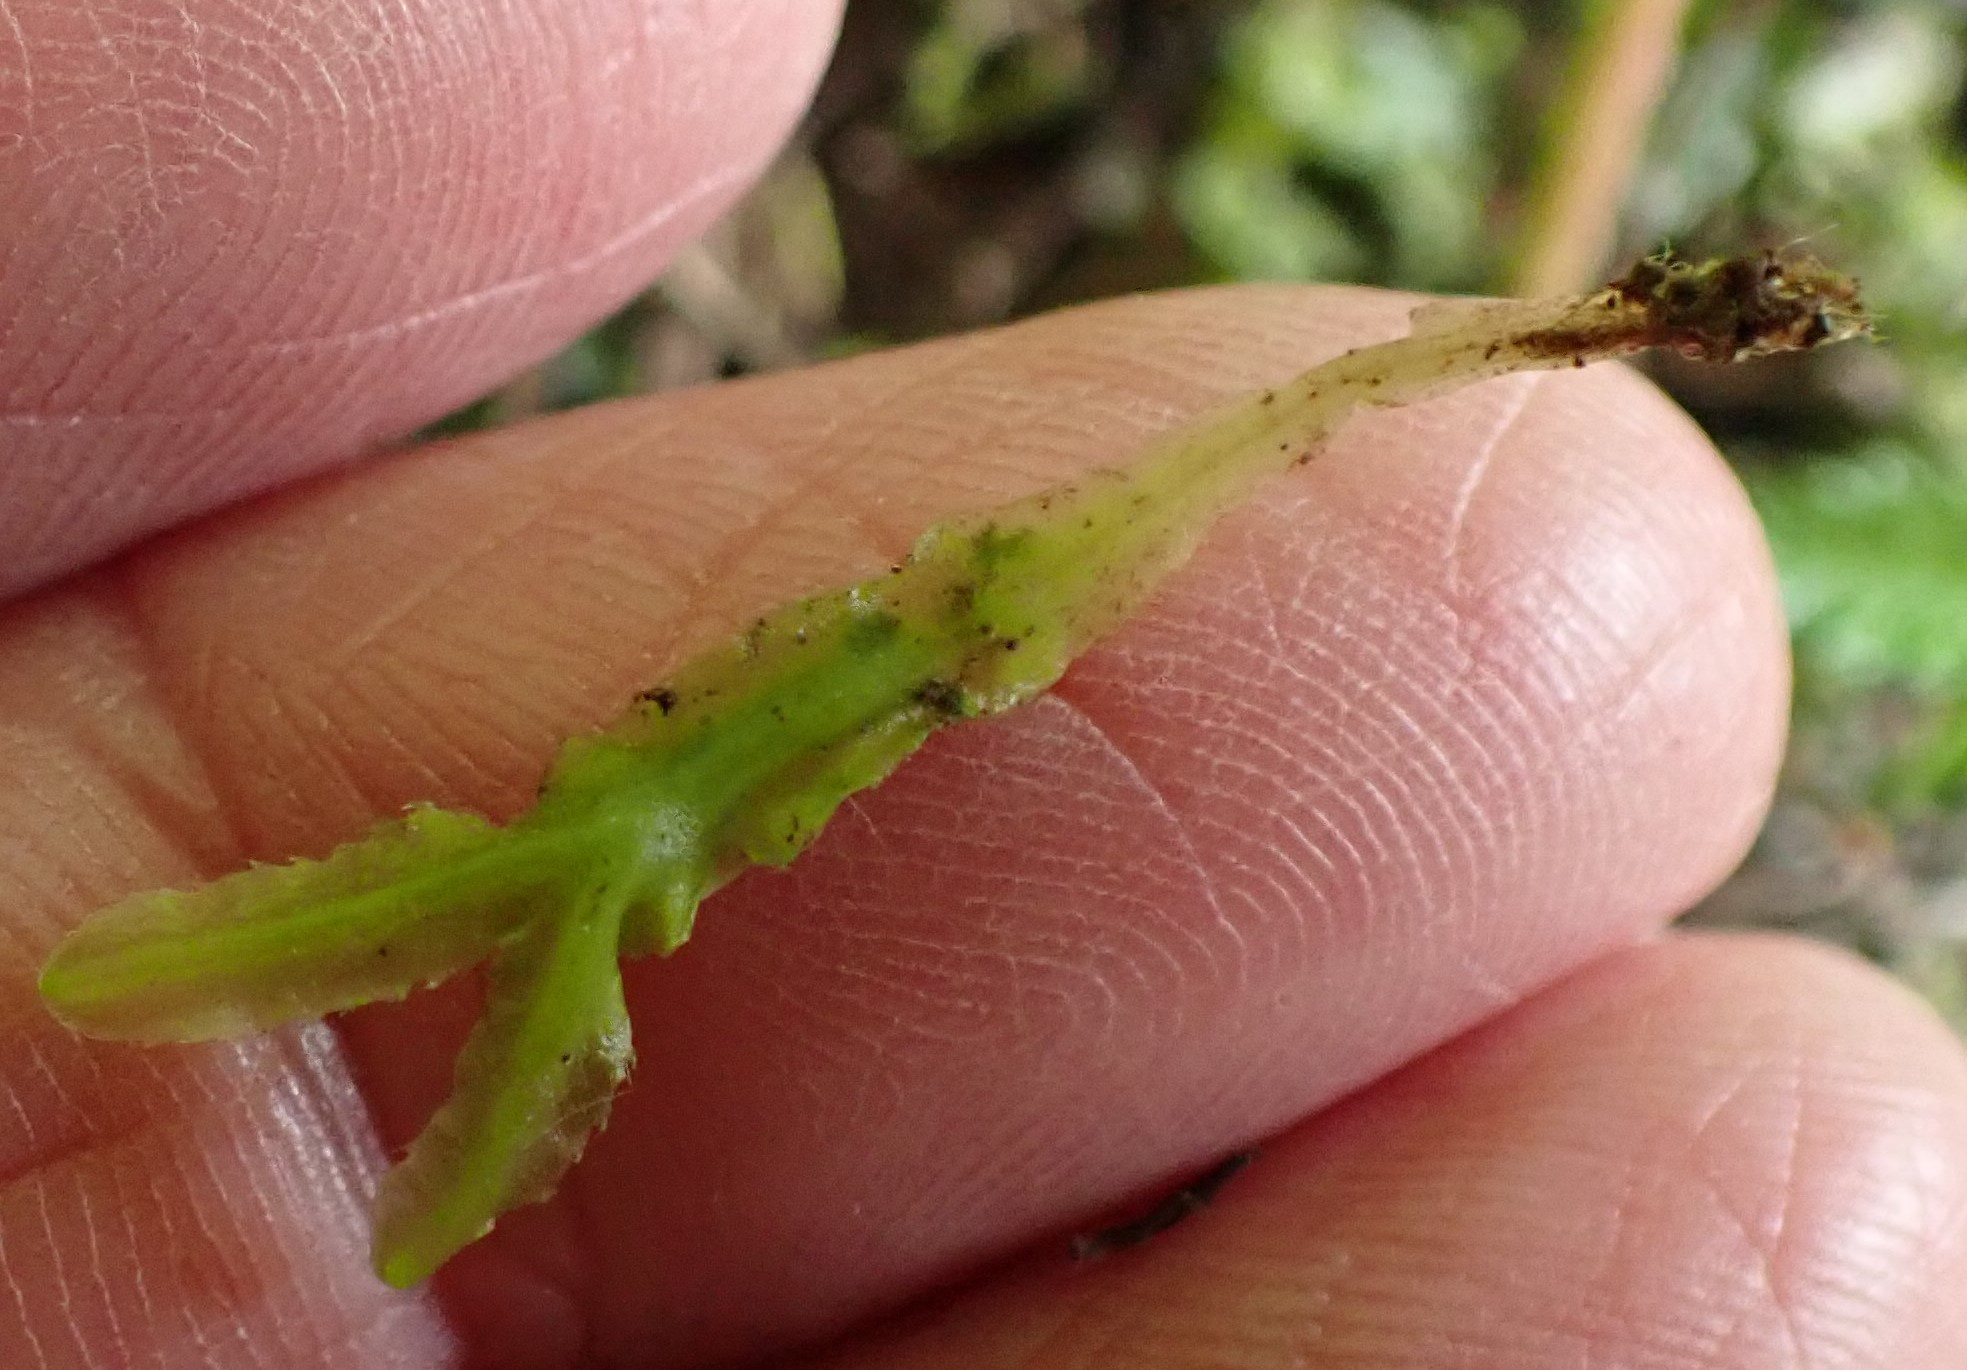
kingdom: Plantae
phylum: Marchantiophyta
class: Jungermanniopsida
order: Pallaviciniales
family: Pallaviciniaceae
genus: Prionothallus
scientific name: Prionothallus xiphoides
